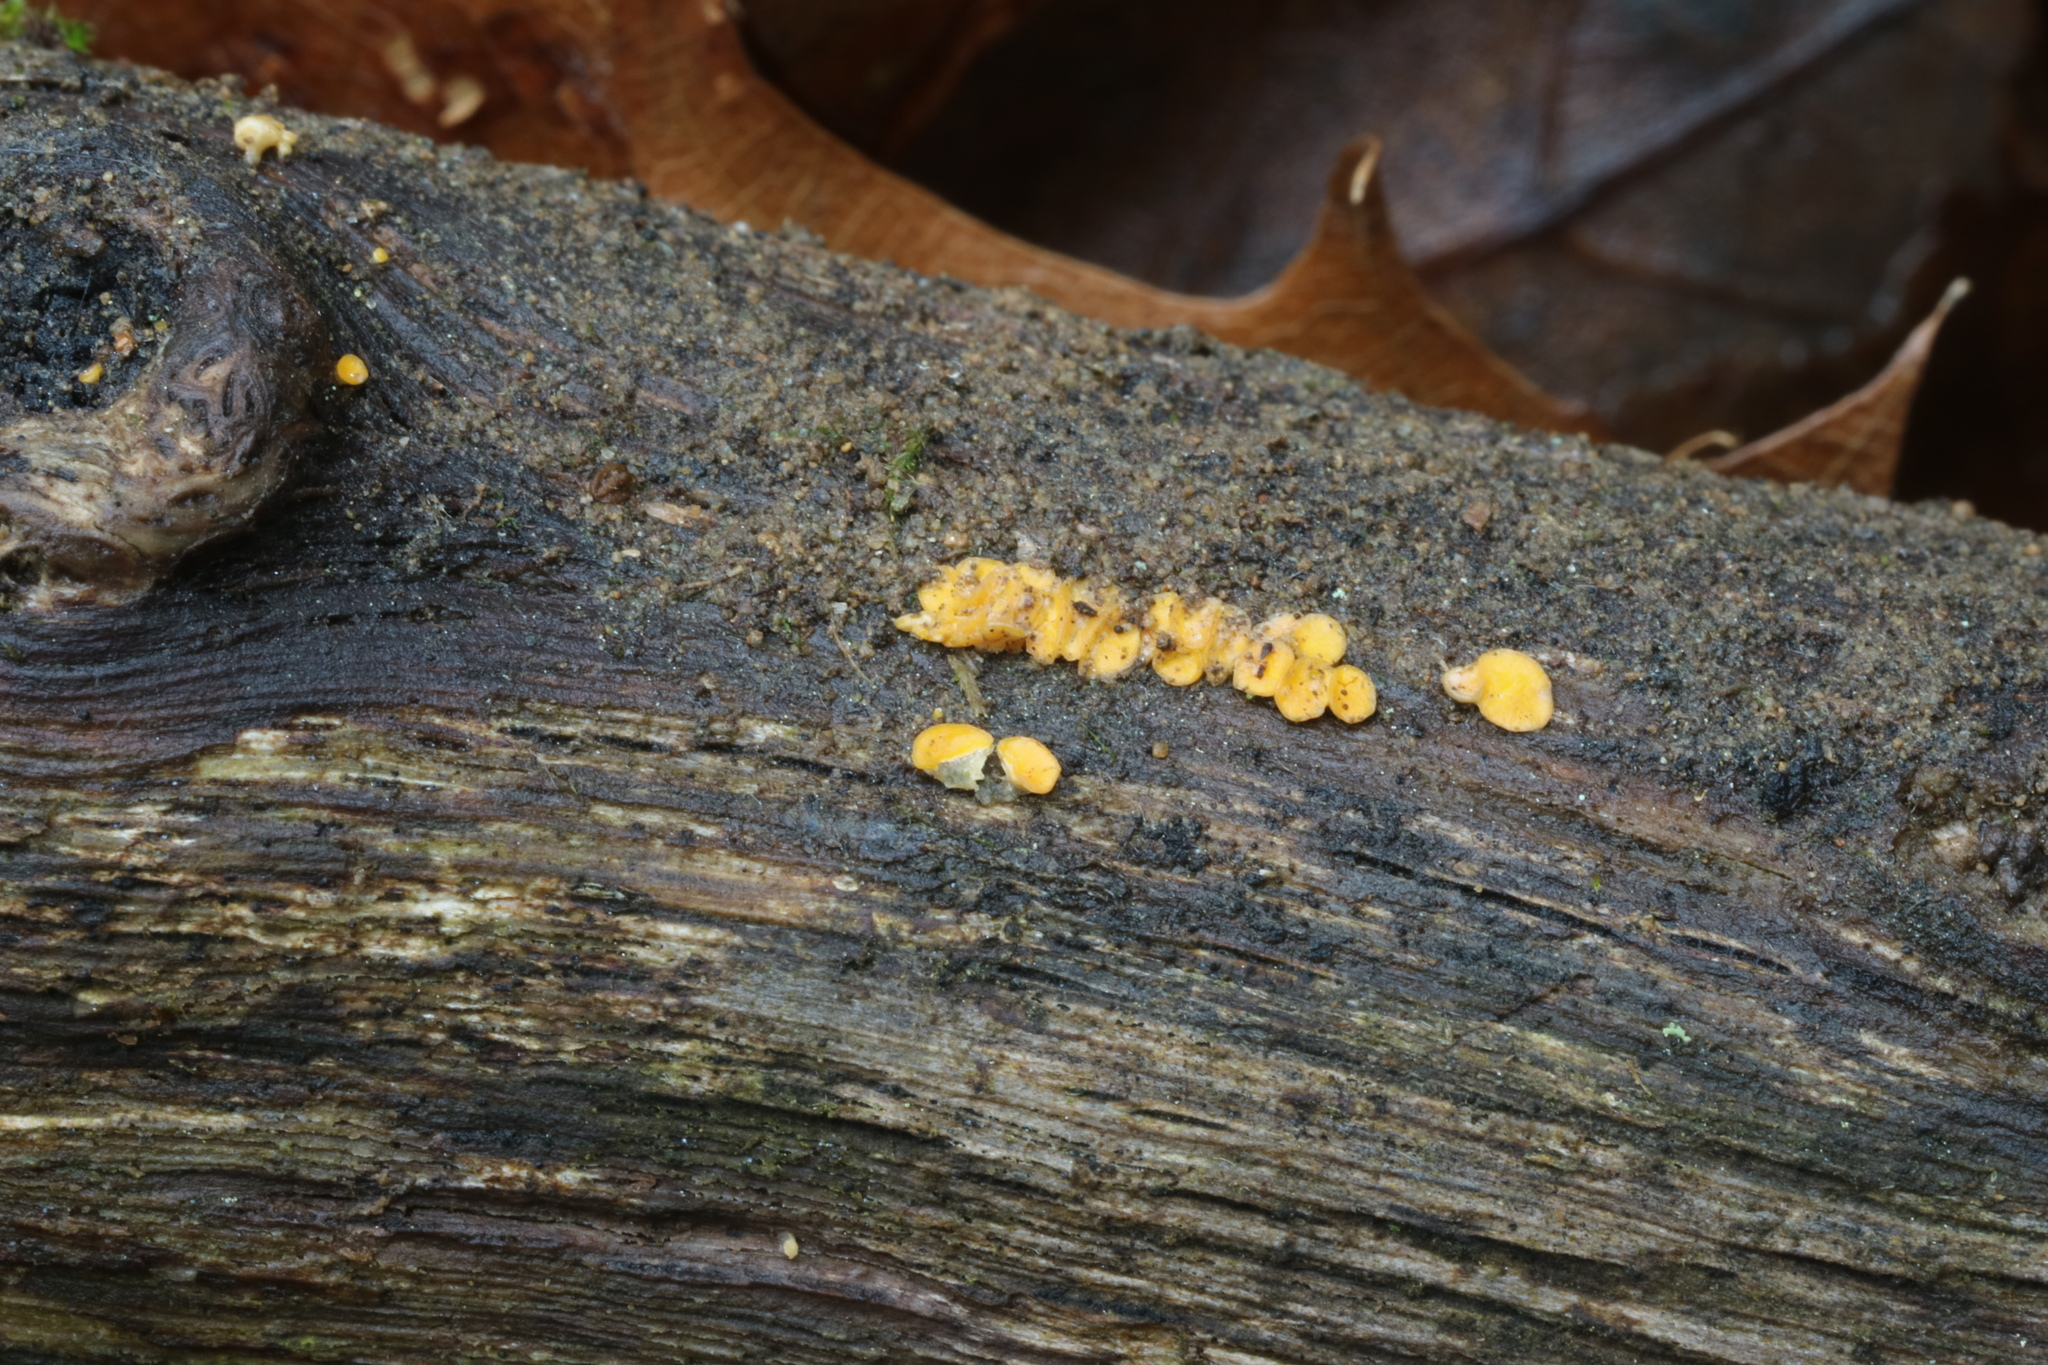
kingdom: Fungi
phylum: Ascomycota
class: Leotiomycetes
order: Helotiales
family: Pezizellaceae
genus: Calycina
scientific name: Calycina citrina
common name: Yellow fairy cups
